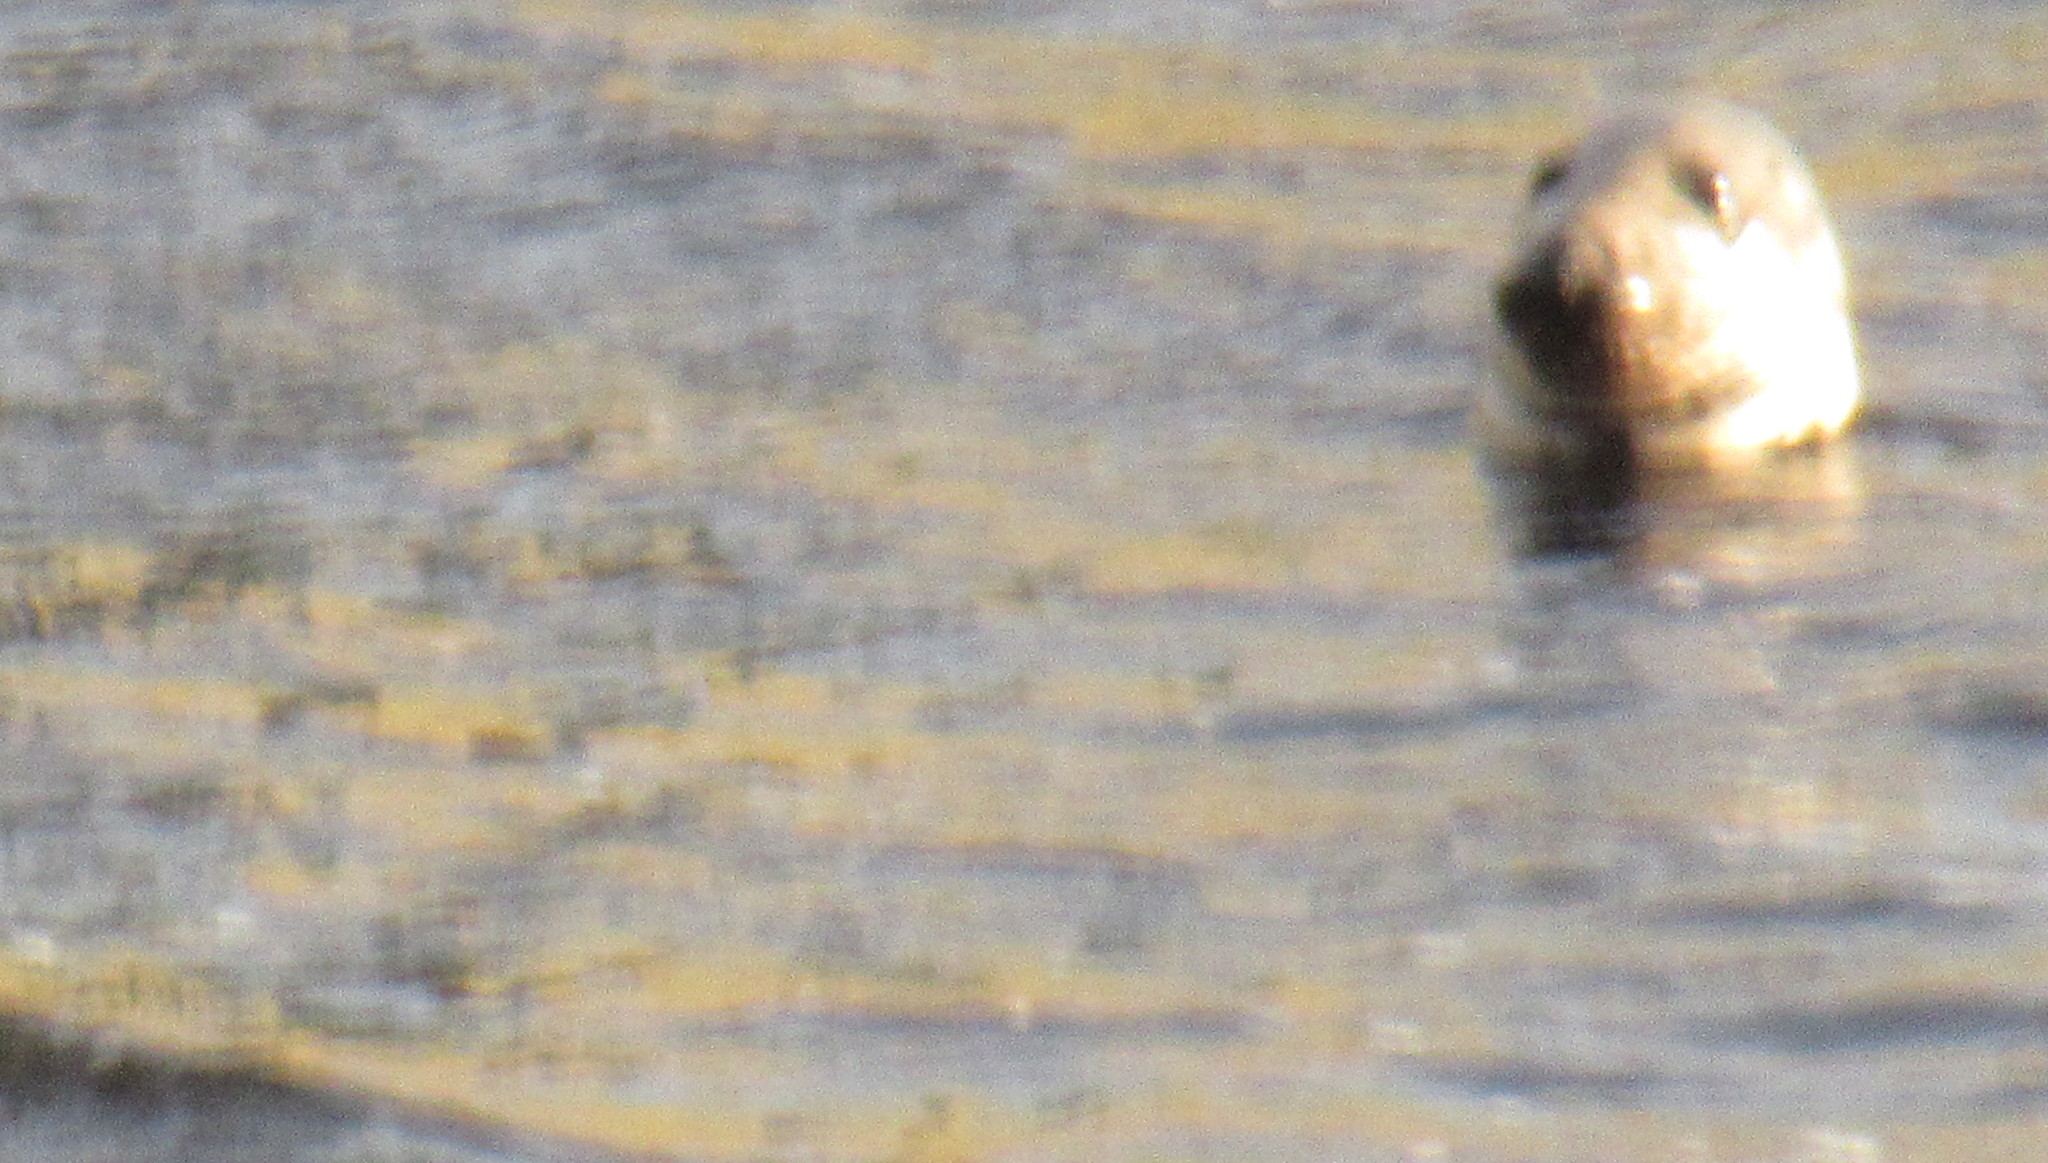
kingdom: Animalia
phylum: Chordata
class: Mammalia
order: Carnivora
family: Phocidae
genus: Halichoerus
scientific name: Halichoerus grypus
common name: Grey seal
